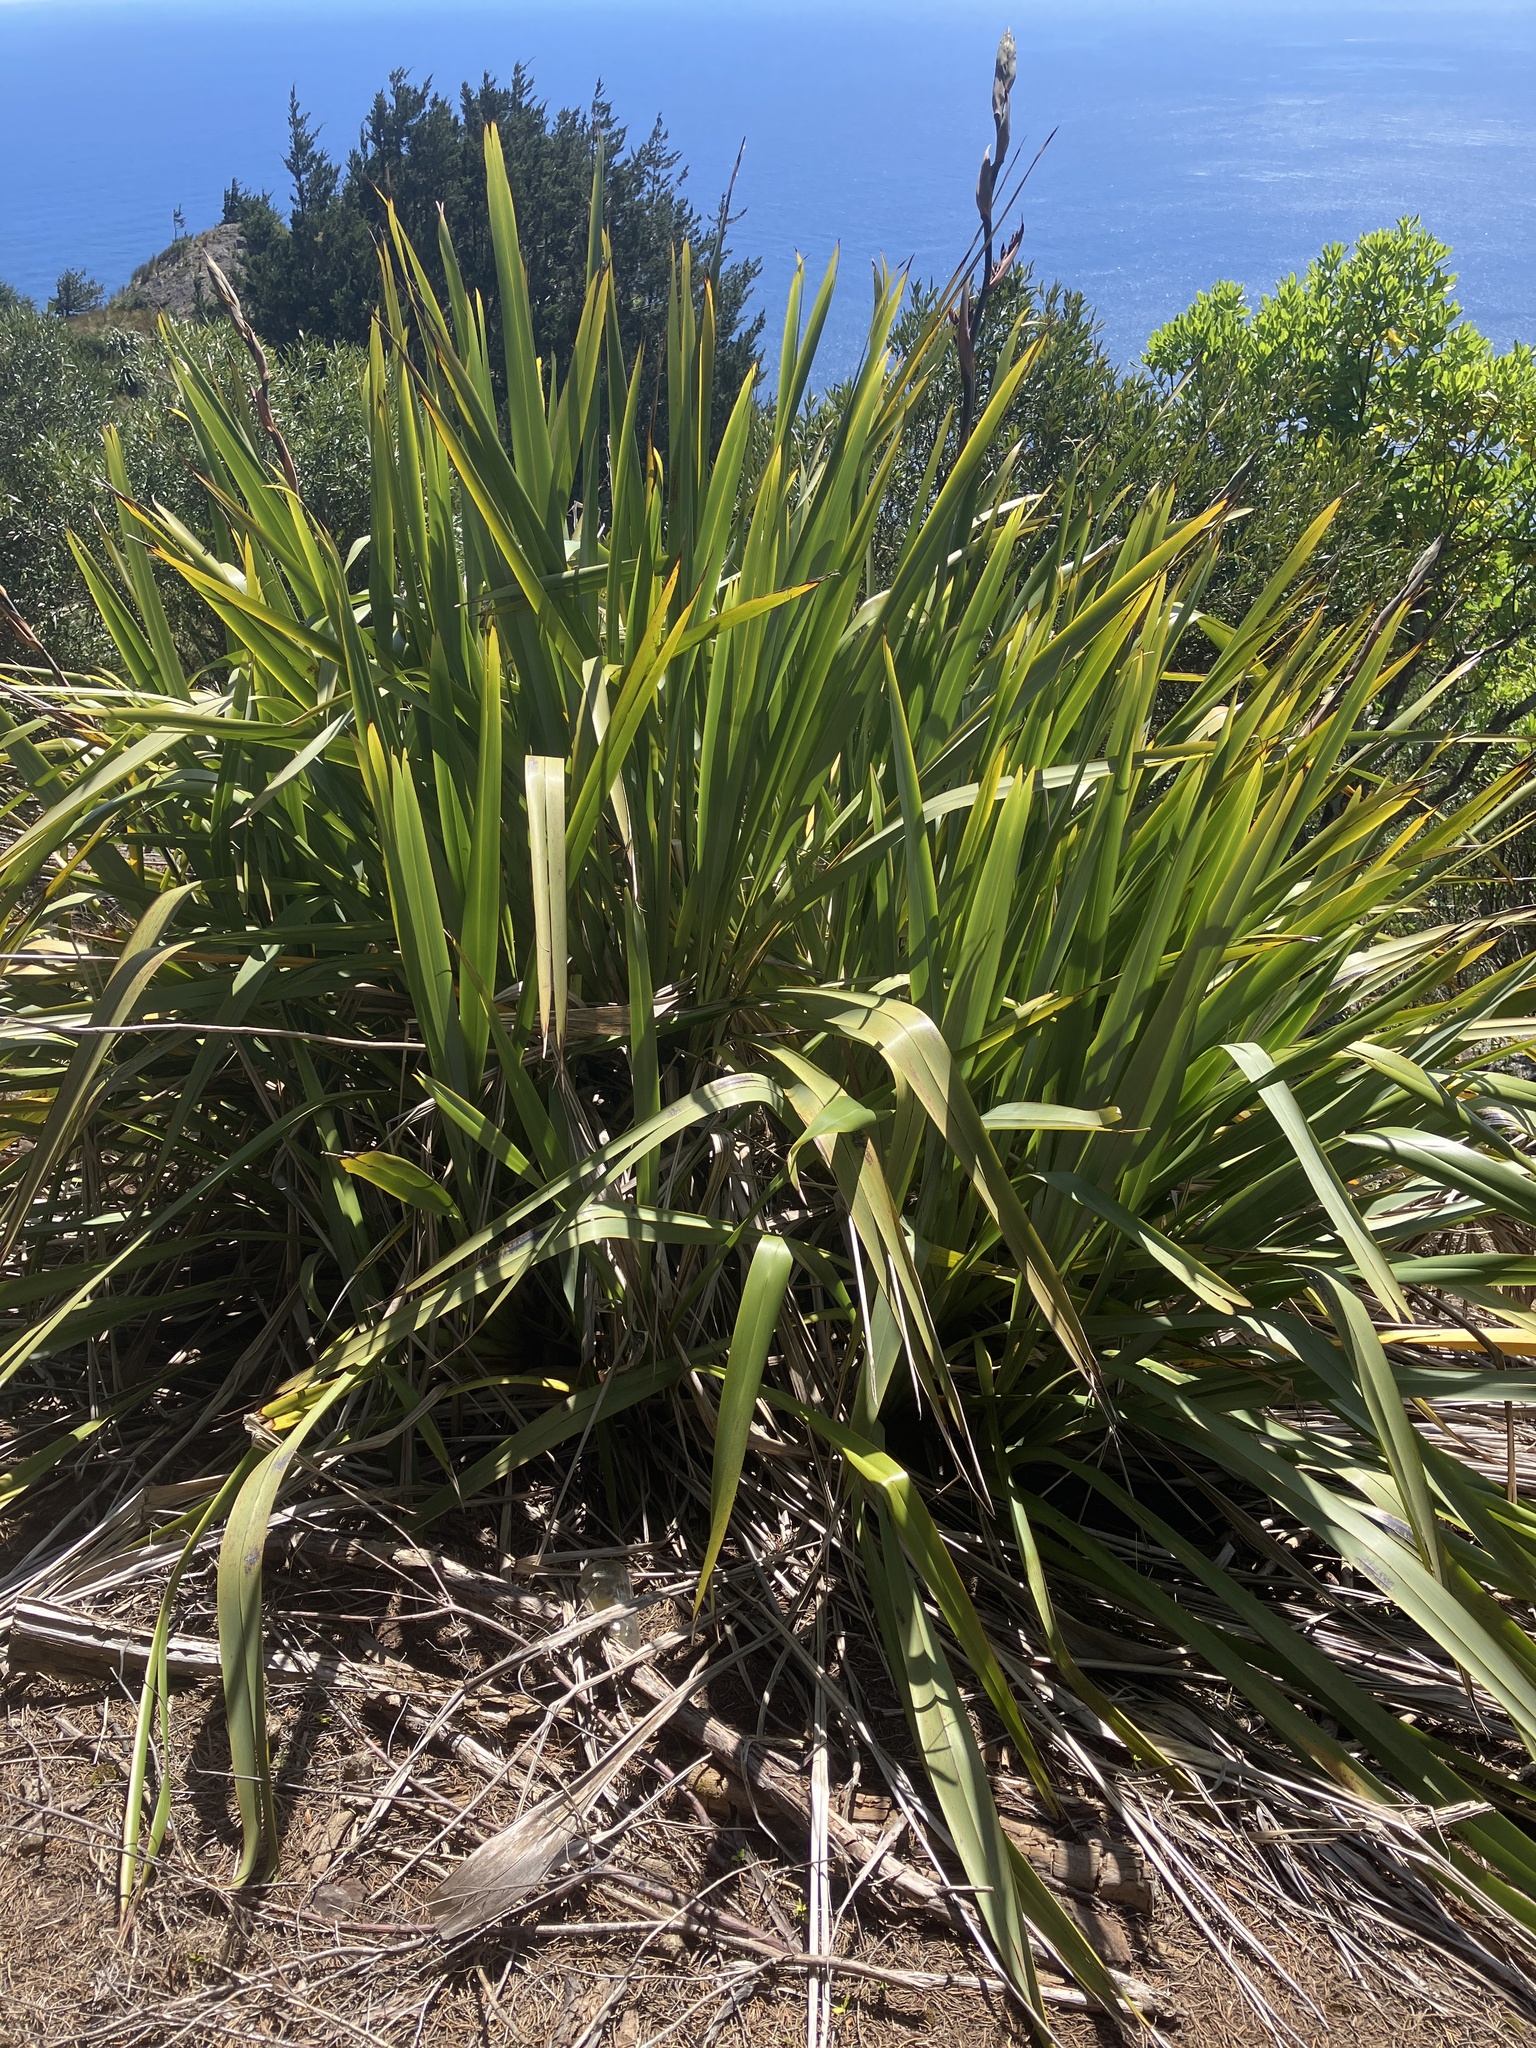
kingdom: Plantae
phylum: Tracheophyta
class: Liliopsida
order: Asparagales
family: Asphodelaceae
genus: Phormium
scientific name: Phormium tenax
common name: New zealand flax
